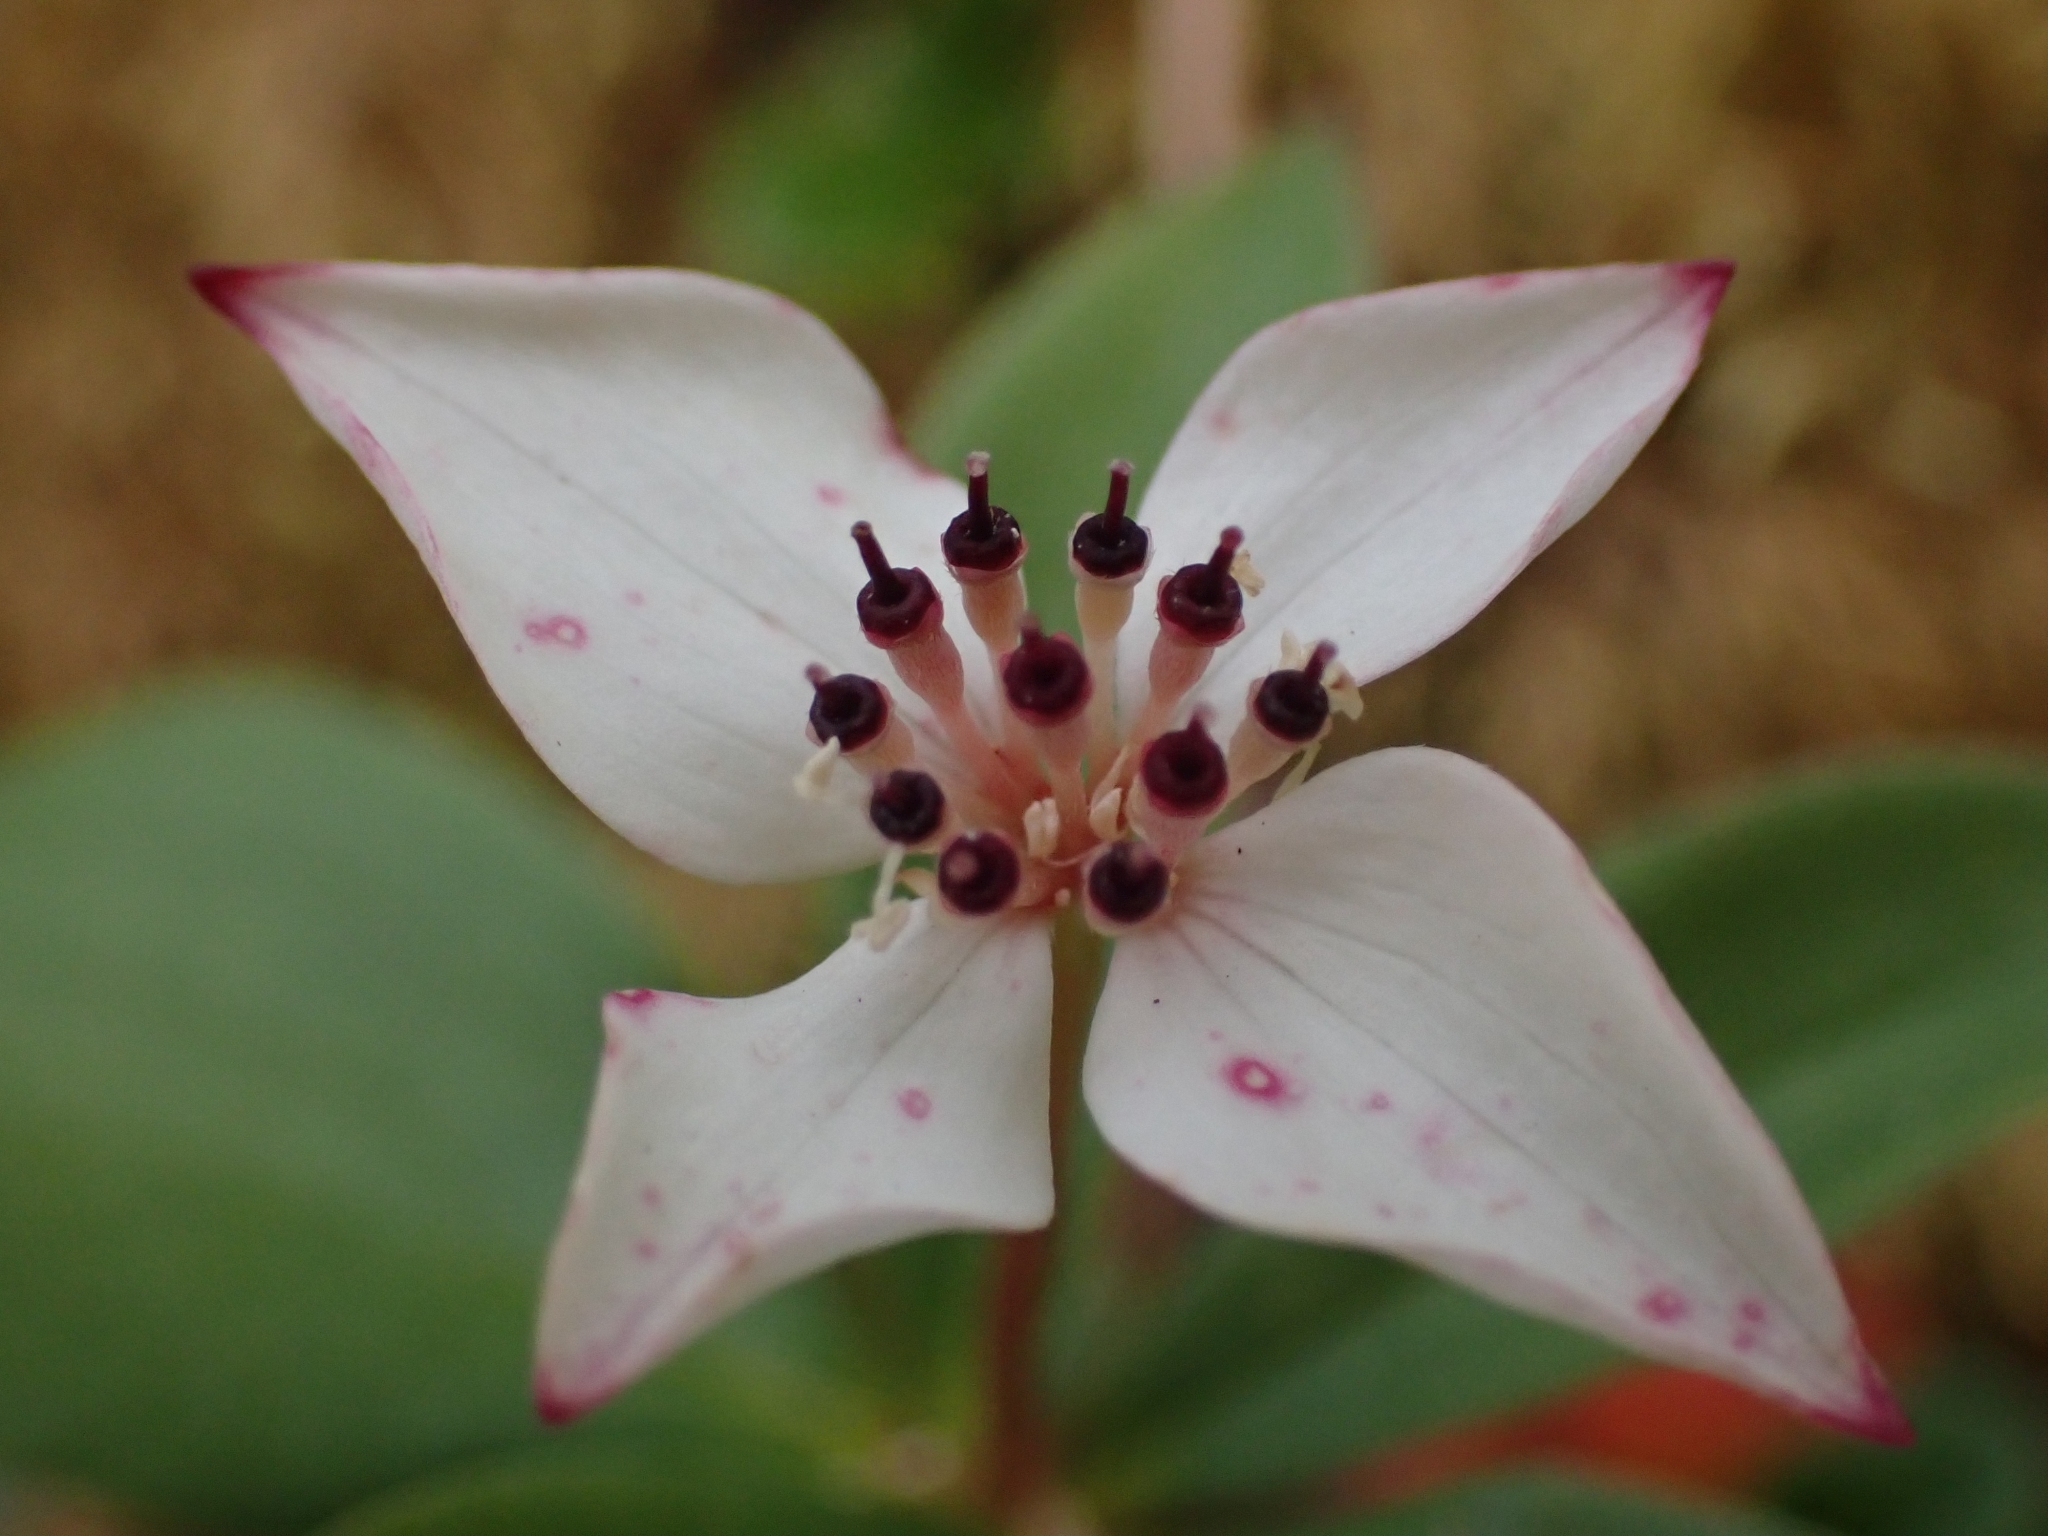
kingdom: Plantae
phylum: Tracheophyta
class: Magnoliopsida
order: Cornales
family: Cornaceae
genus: Cornus
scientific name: Cornus canadensis
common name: Creeping dogwood
